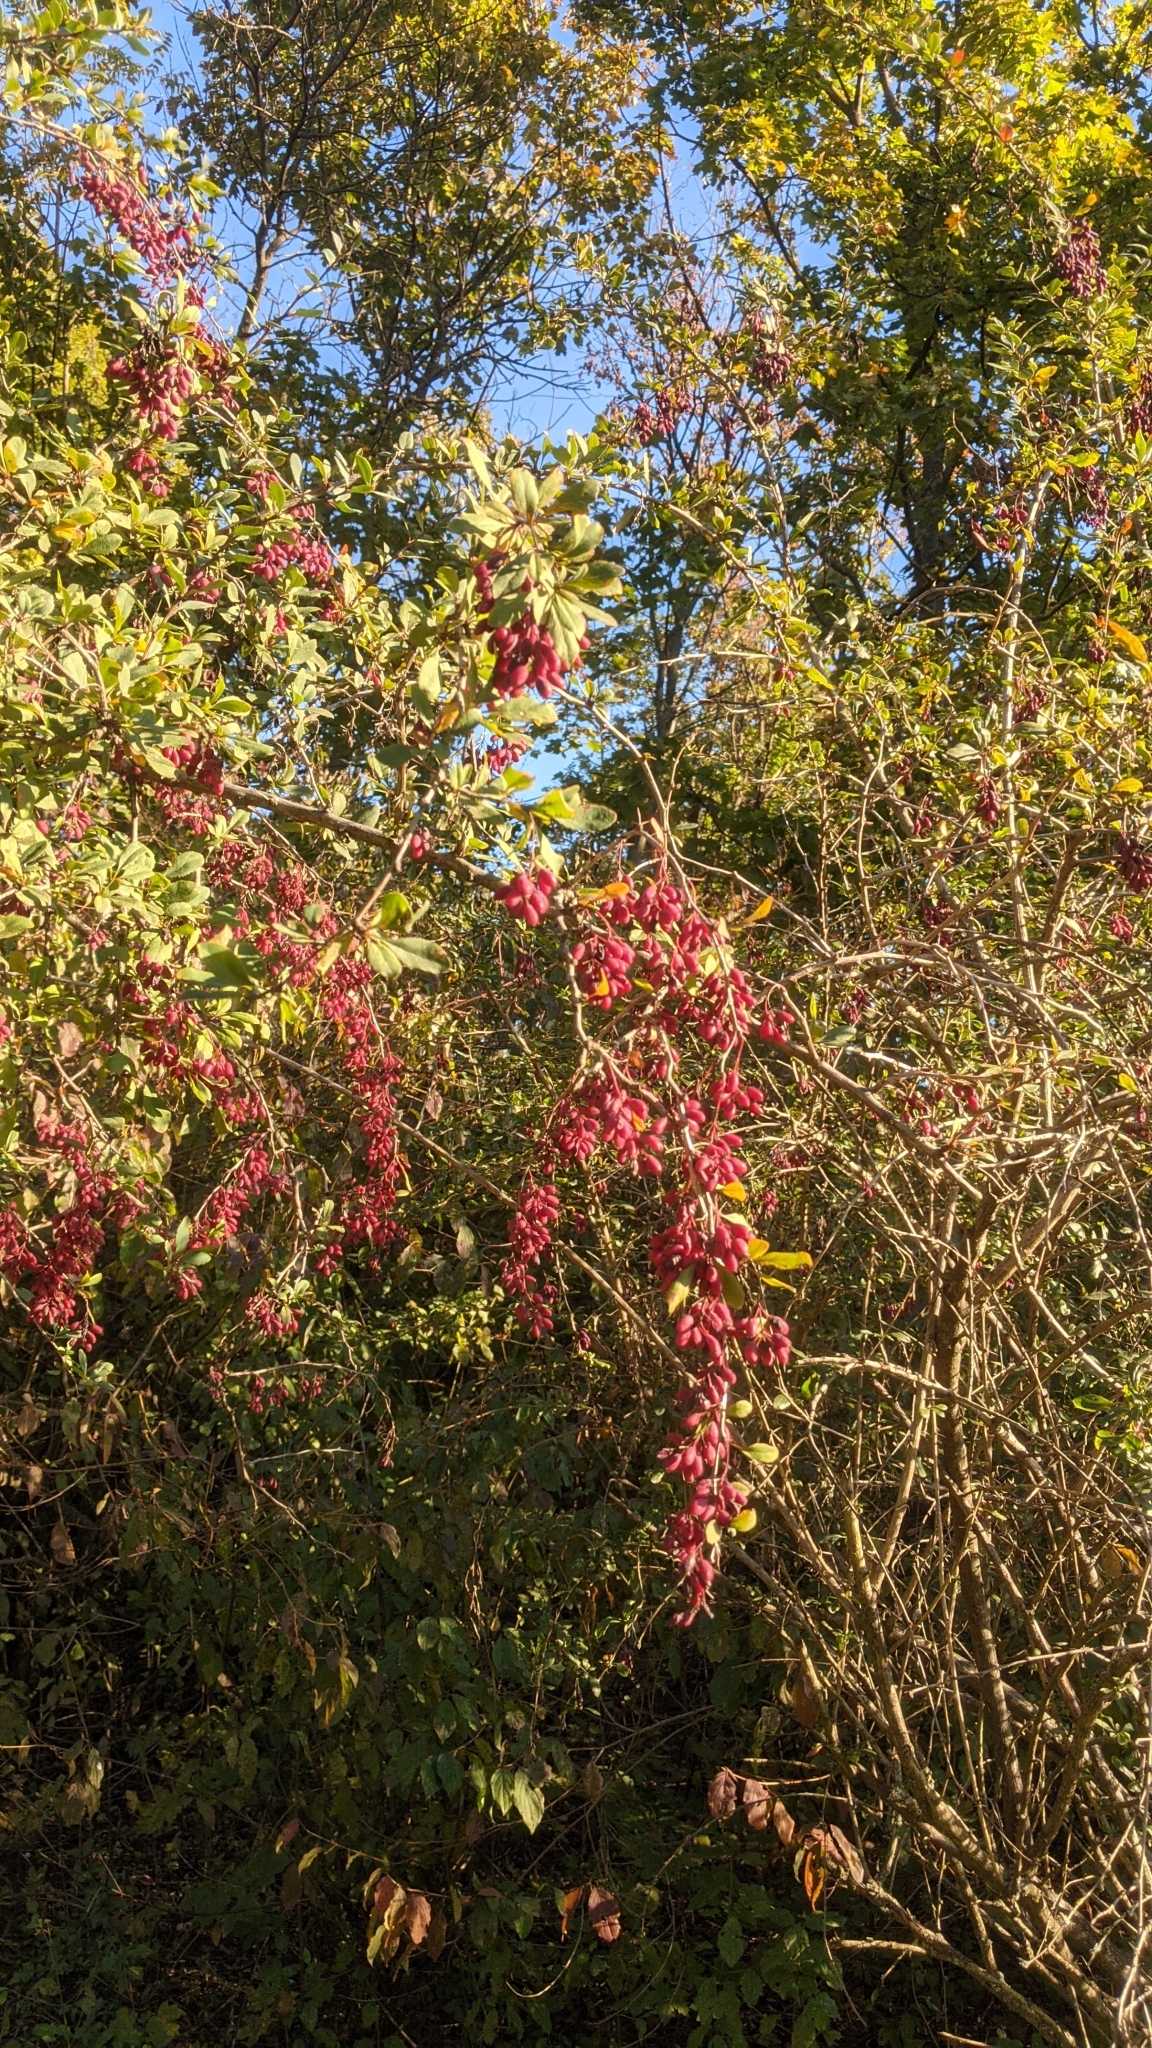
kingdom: Plantae
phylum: Tracheophyta
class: Magnoliopsida
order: Ranunculales
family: Berberidaceae
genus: Berberis
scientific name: Berberis vulgaris
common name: Barberry
